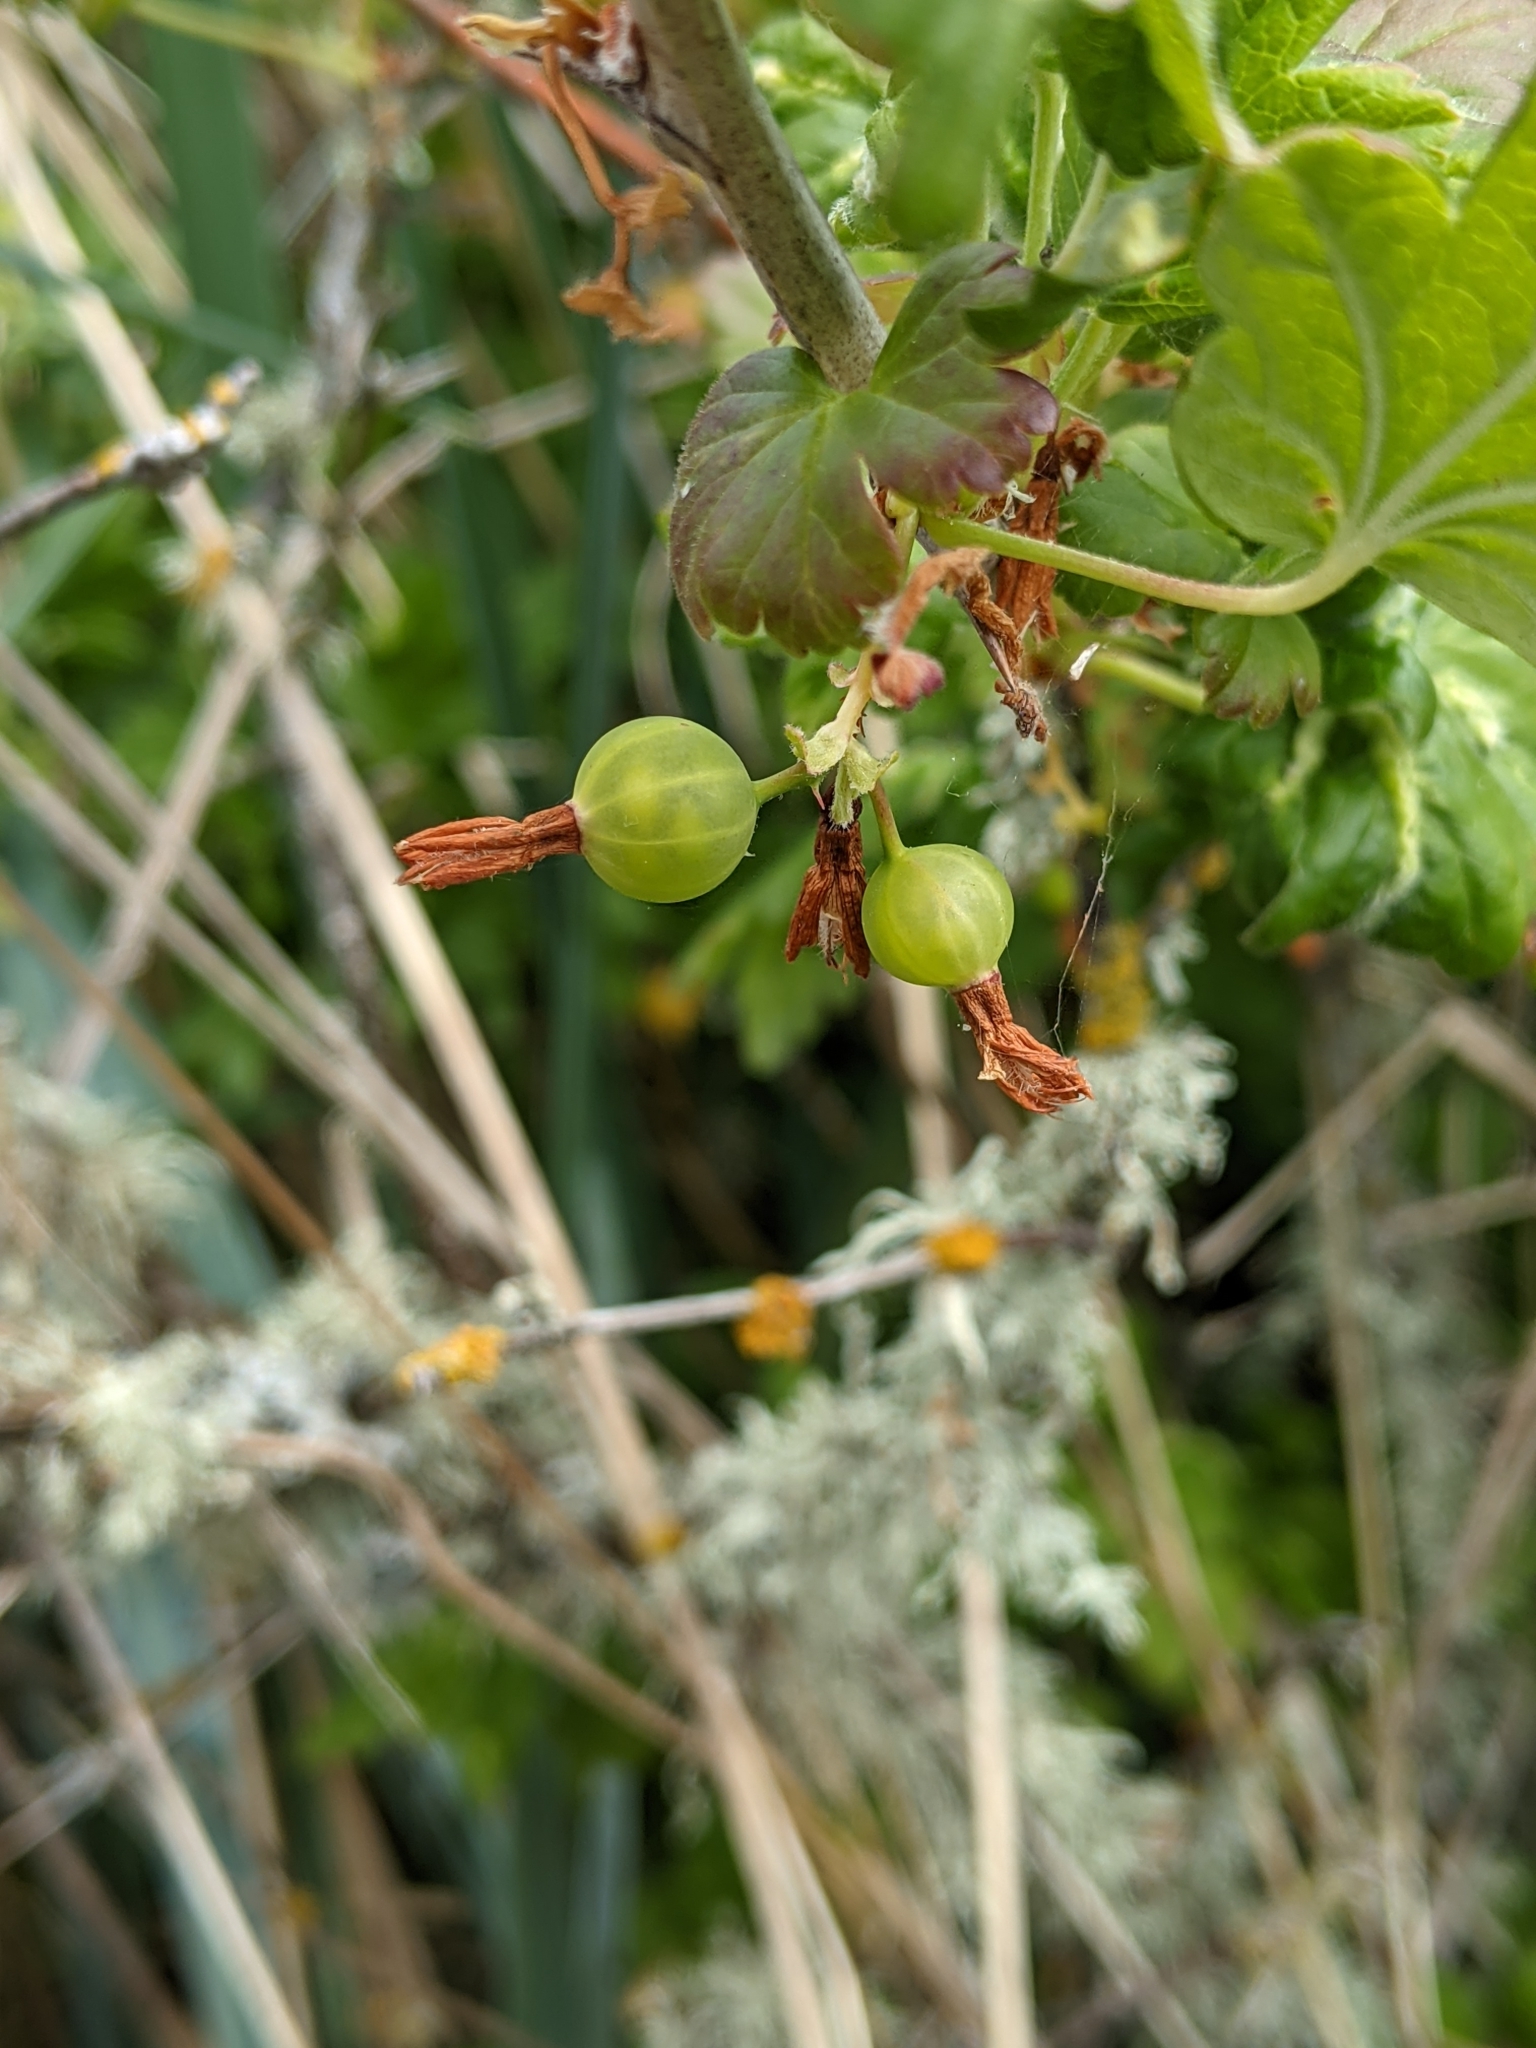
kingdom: Plantae
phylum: Tracheophyta
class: Magnoliopsida
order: Saxifragales
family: Grossulariaceae
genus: Ribes
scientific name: Ribes divaricatum
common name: Wild black gooseberry
